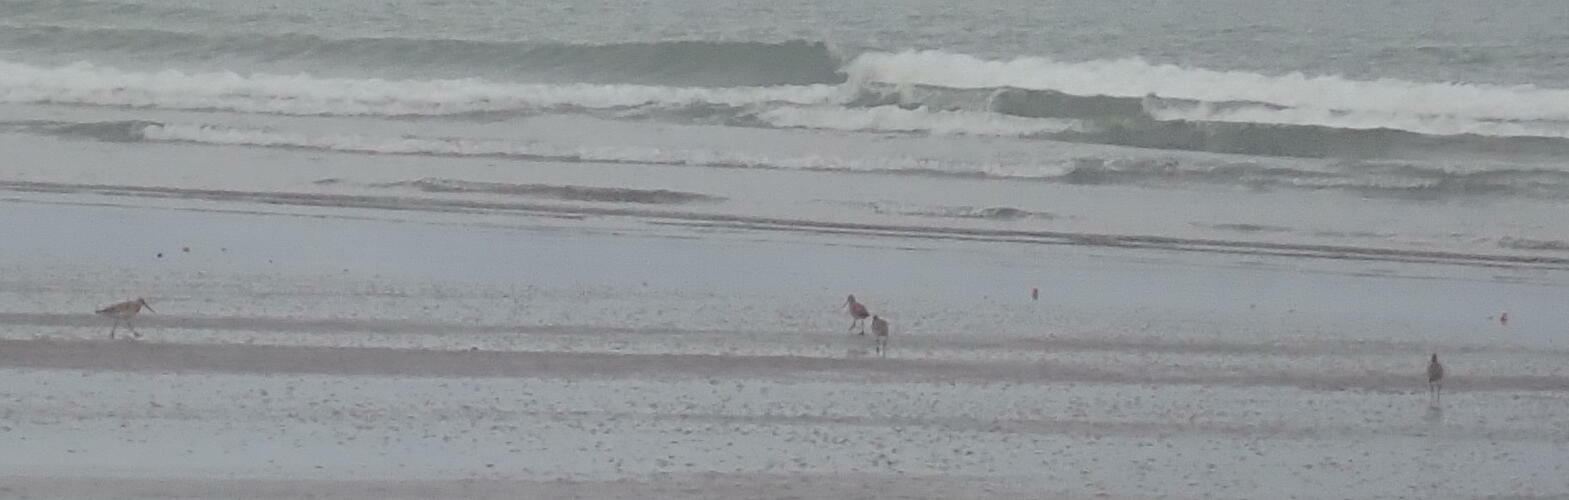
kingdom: Animalia
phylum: Chordata
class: Aves
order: Charadriiformes
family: Scolopacidae
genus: Limosa
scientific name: Limosa lapponica
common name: Bar-tailed godwit
